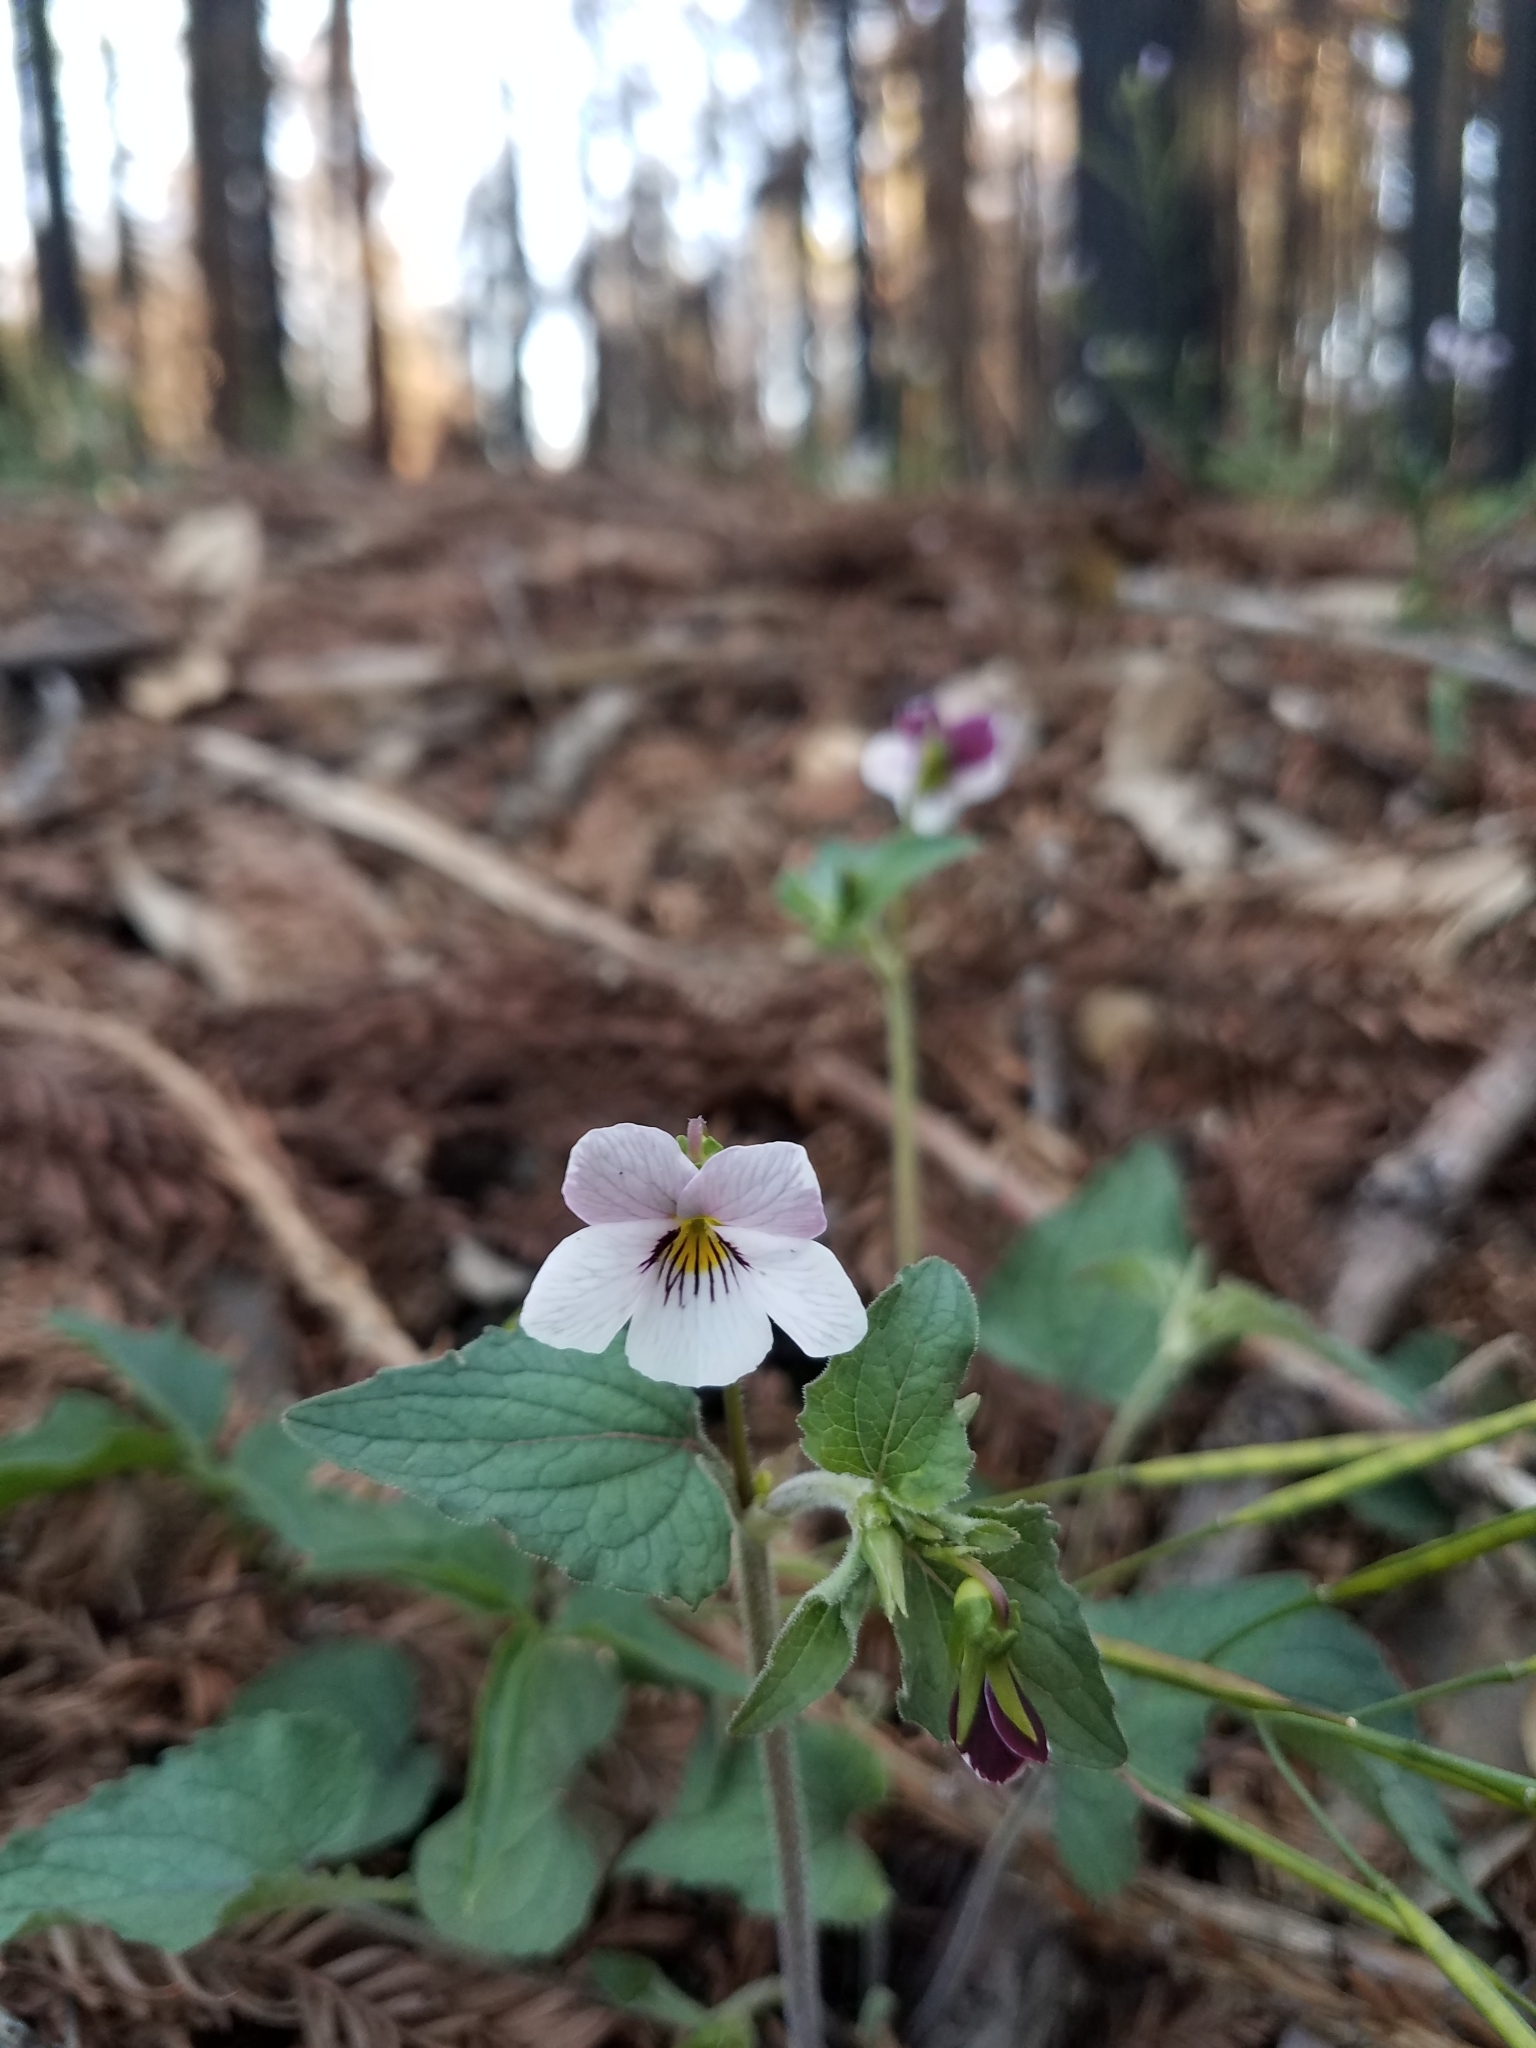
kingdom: Plantae
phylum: Tracheophyta
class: Magnoliopsida
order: Malpighiales
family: Violaceae
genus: Viola
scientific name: Viola ocellata
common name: Western heart's ease
